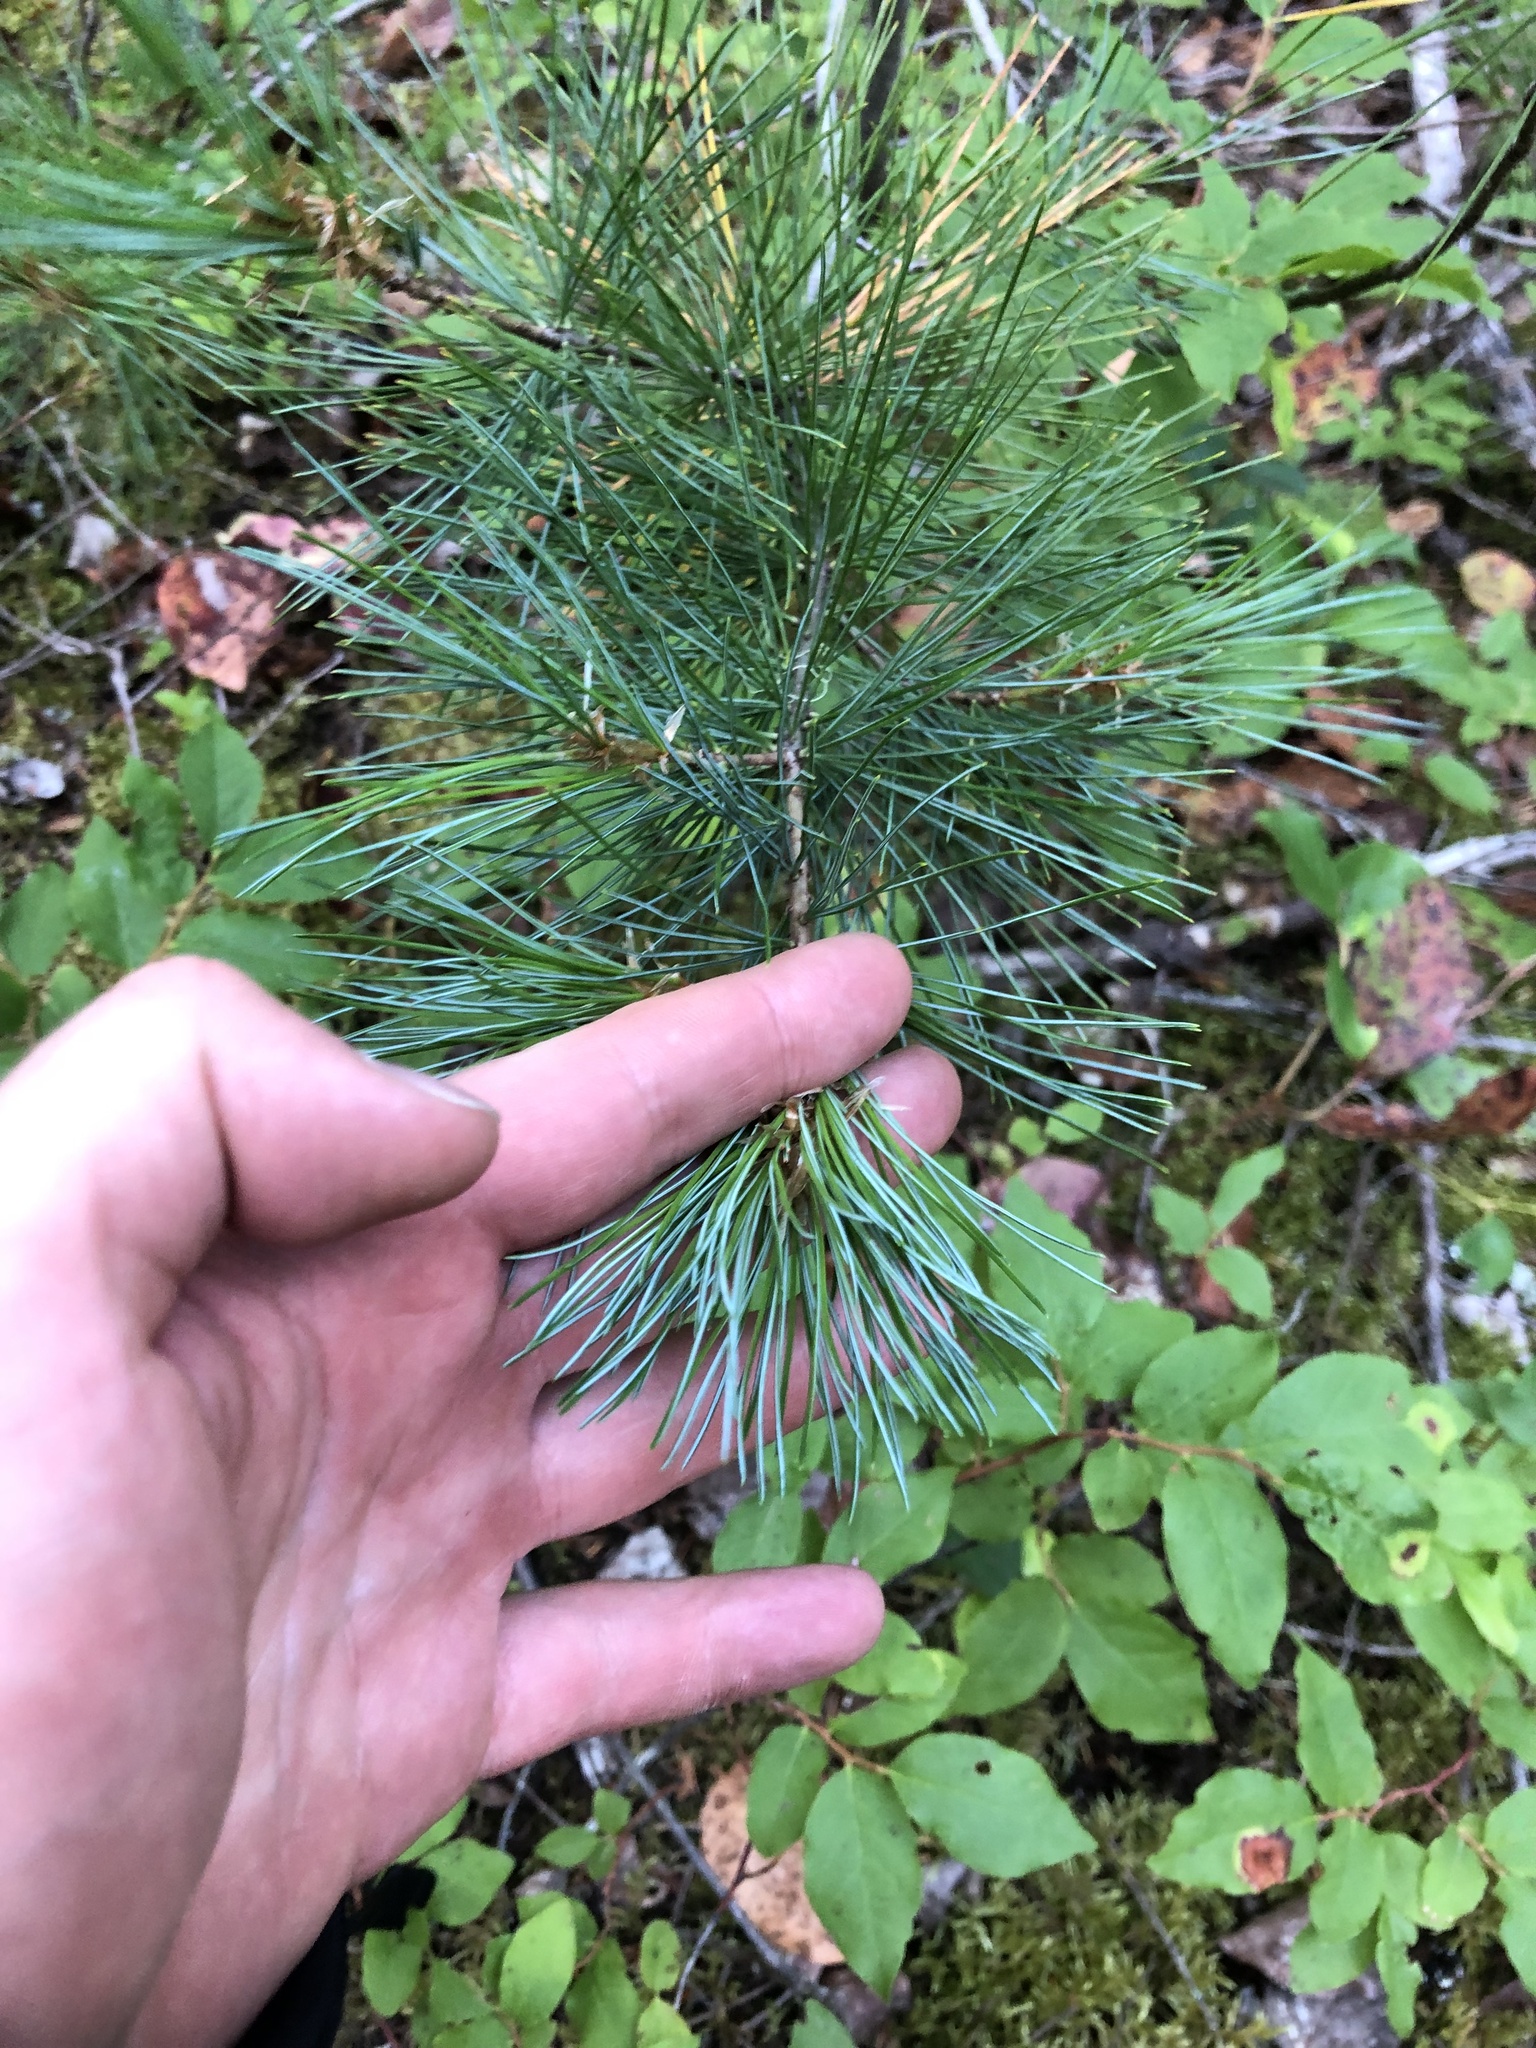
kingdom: Plantae
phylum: Tracheophyta
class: Pinopsida
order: Pinales
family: Pinaceae
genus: Pinus
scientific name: Pinus monticola
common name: Western white pine
